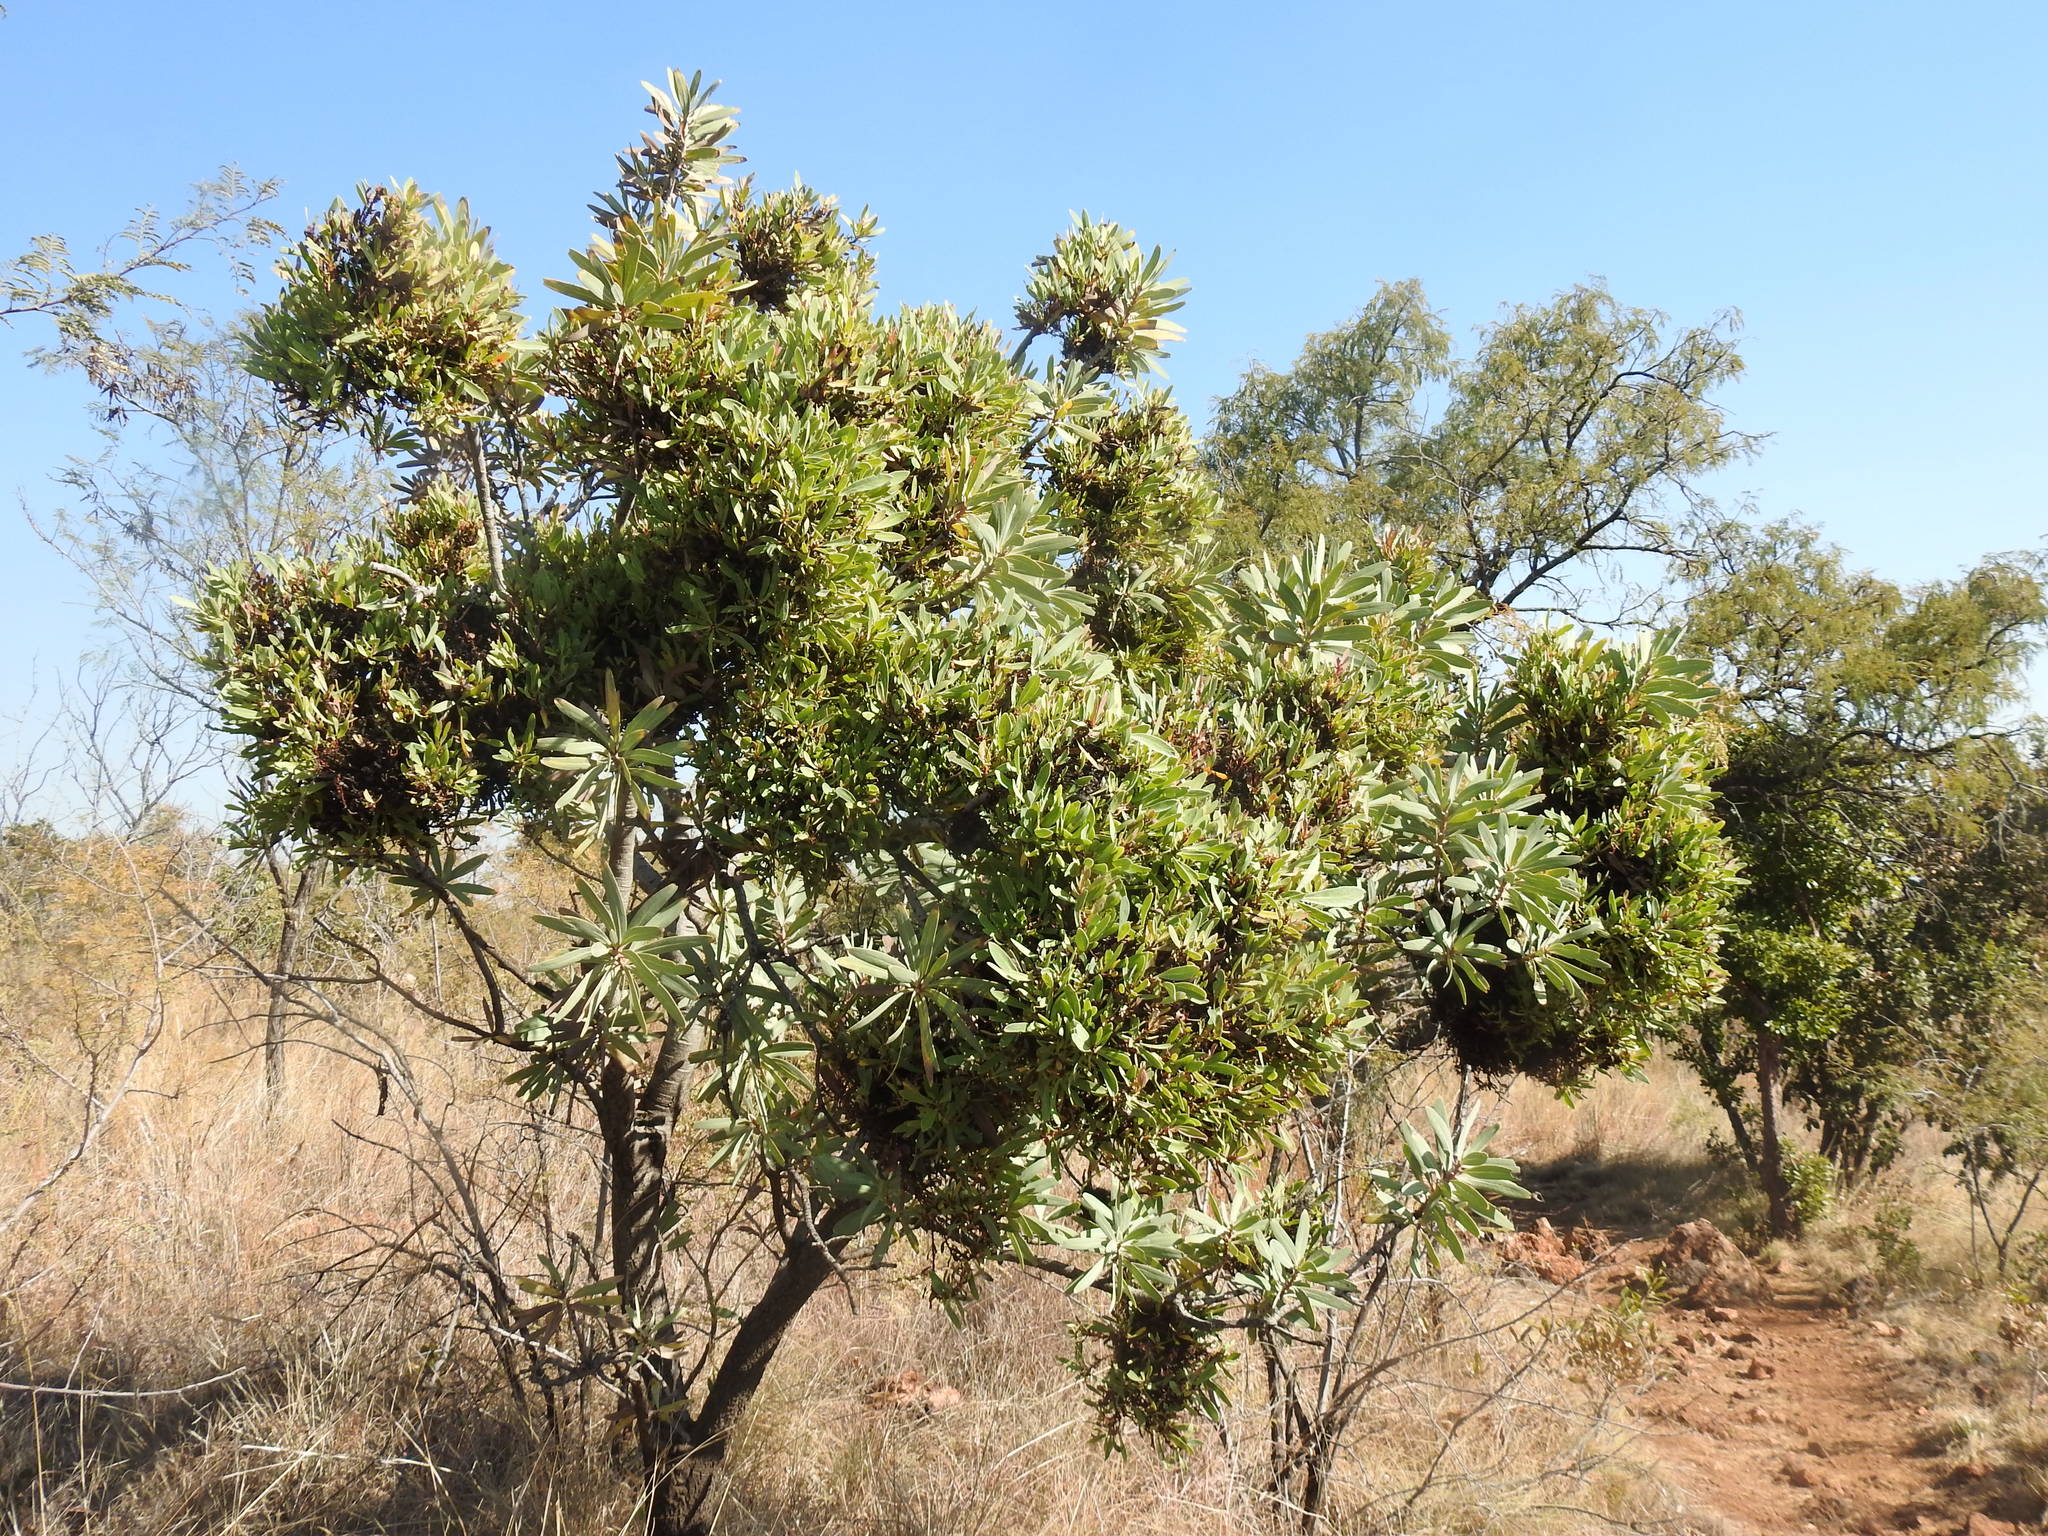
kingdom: Bacteria
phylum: Firmicutes
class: Bacilli
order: Acholeplasmatales
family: Acholeplasmataceae
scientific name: Acholeplasmataceae
